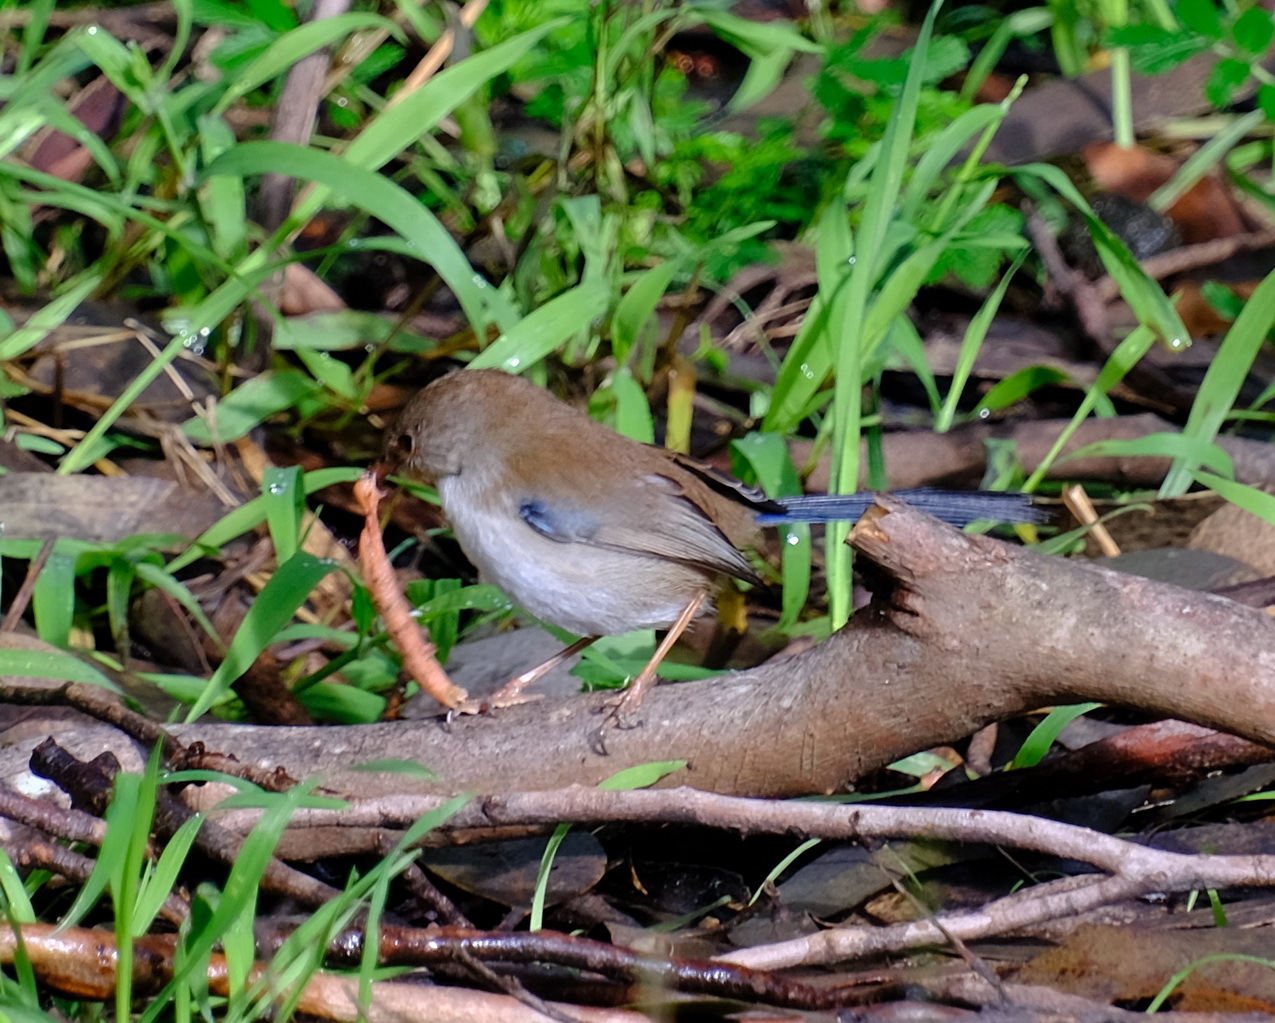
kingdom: Animalia
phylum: Chordata
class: Aves
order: Passeriformes
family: Maluridae
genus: Malurus
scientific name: Malurus cyaneus
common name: Superb fairywren
